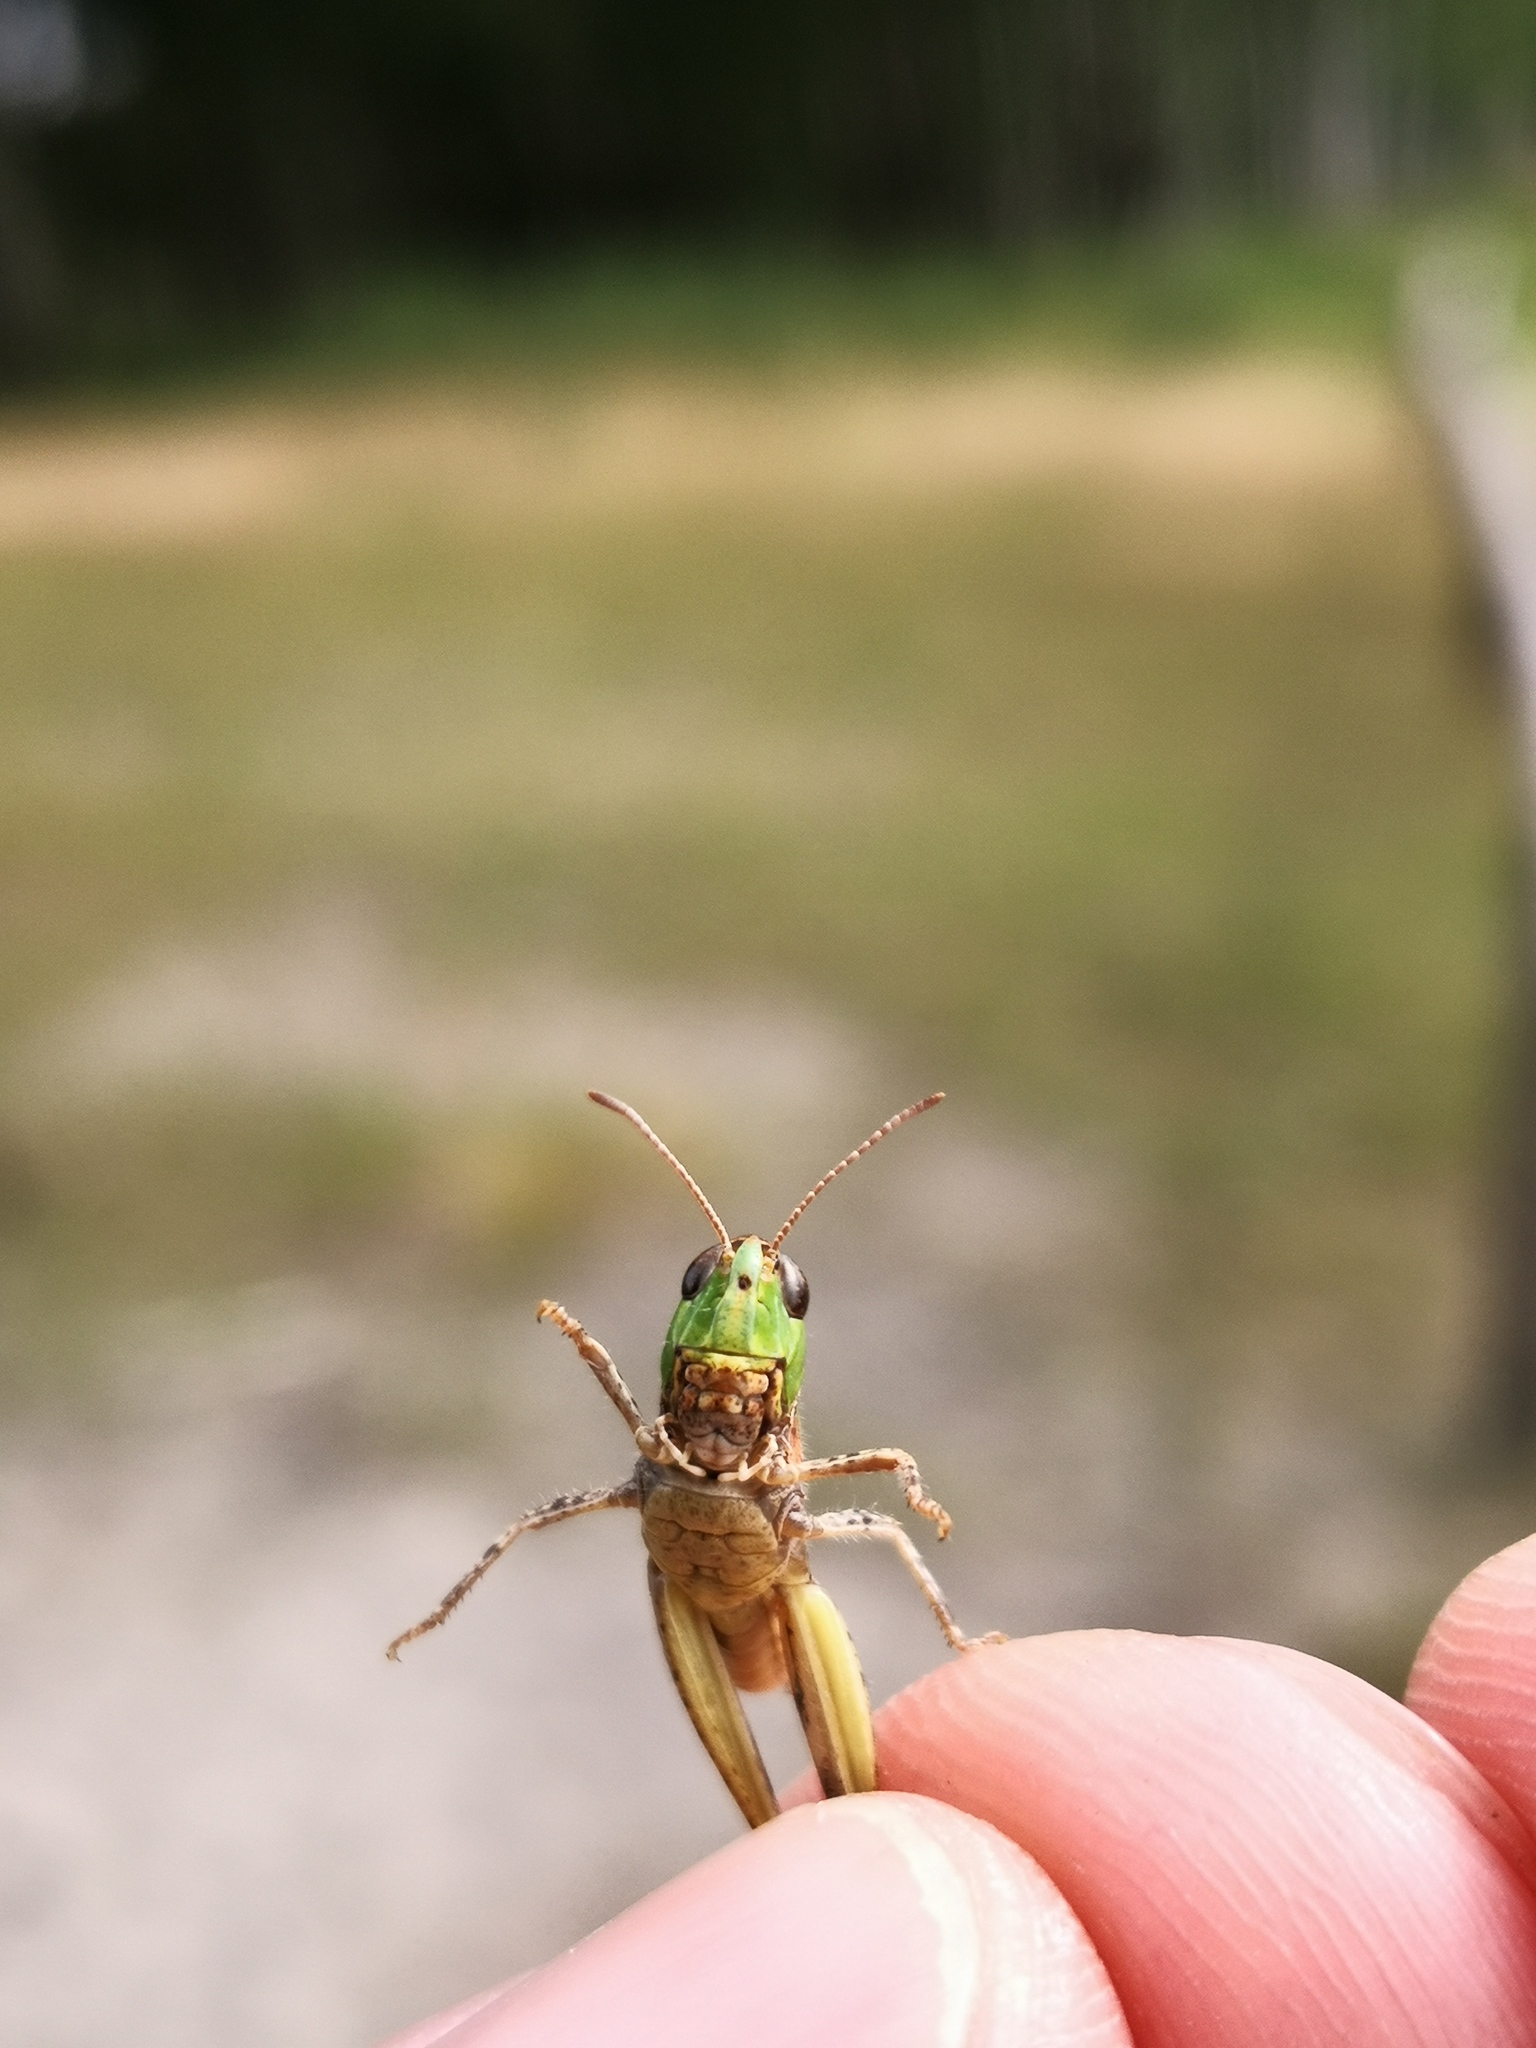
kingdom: Animalia
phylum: Arthropoda
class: Insecta
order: Orthoptera
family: Acrididae
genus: Myrmeleotettix
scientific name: Myrmeleotettix maculatus
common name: Mottled grasshopper
